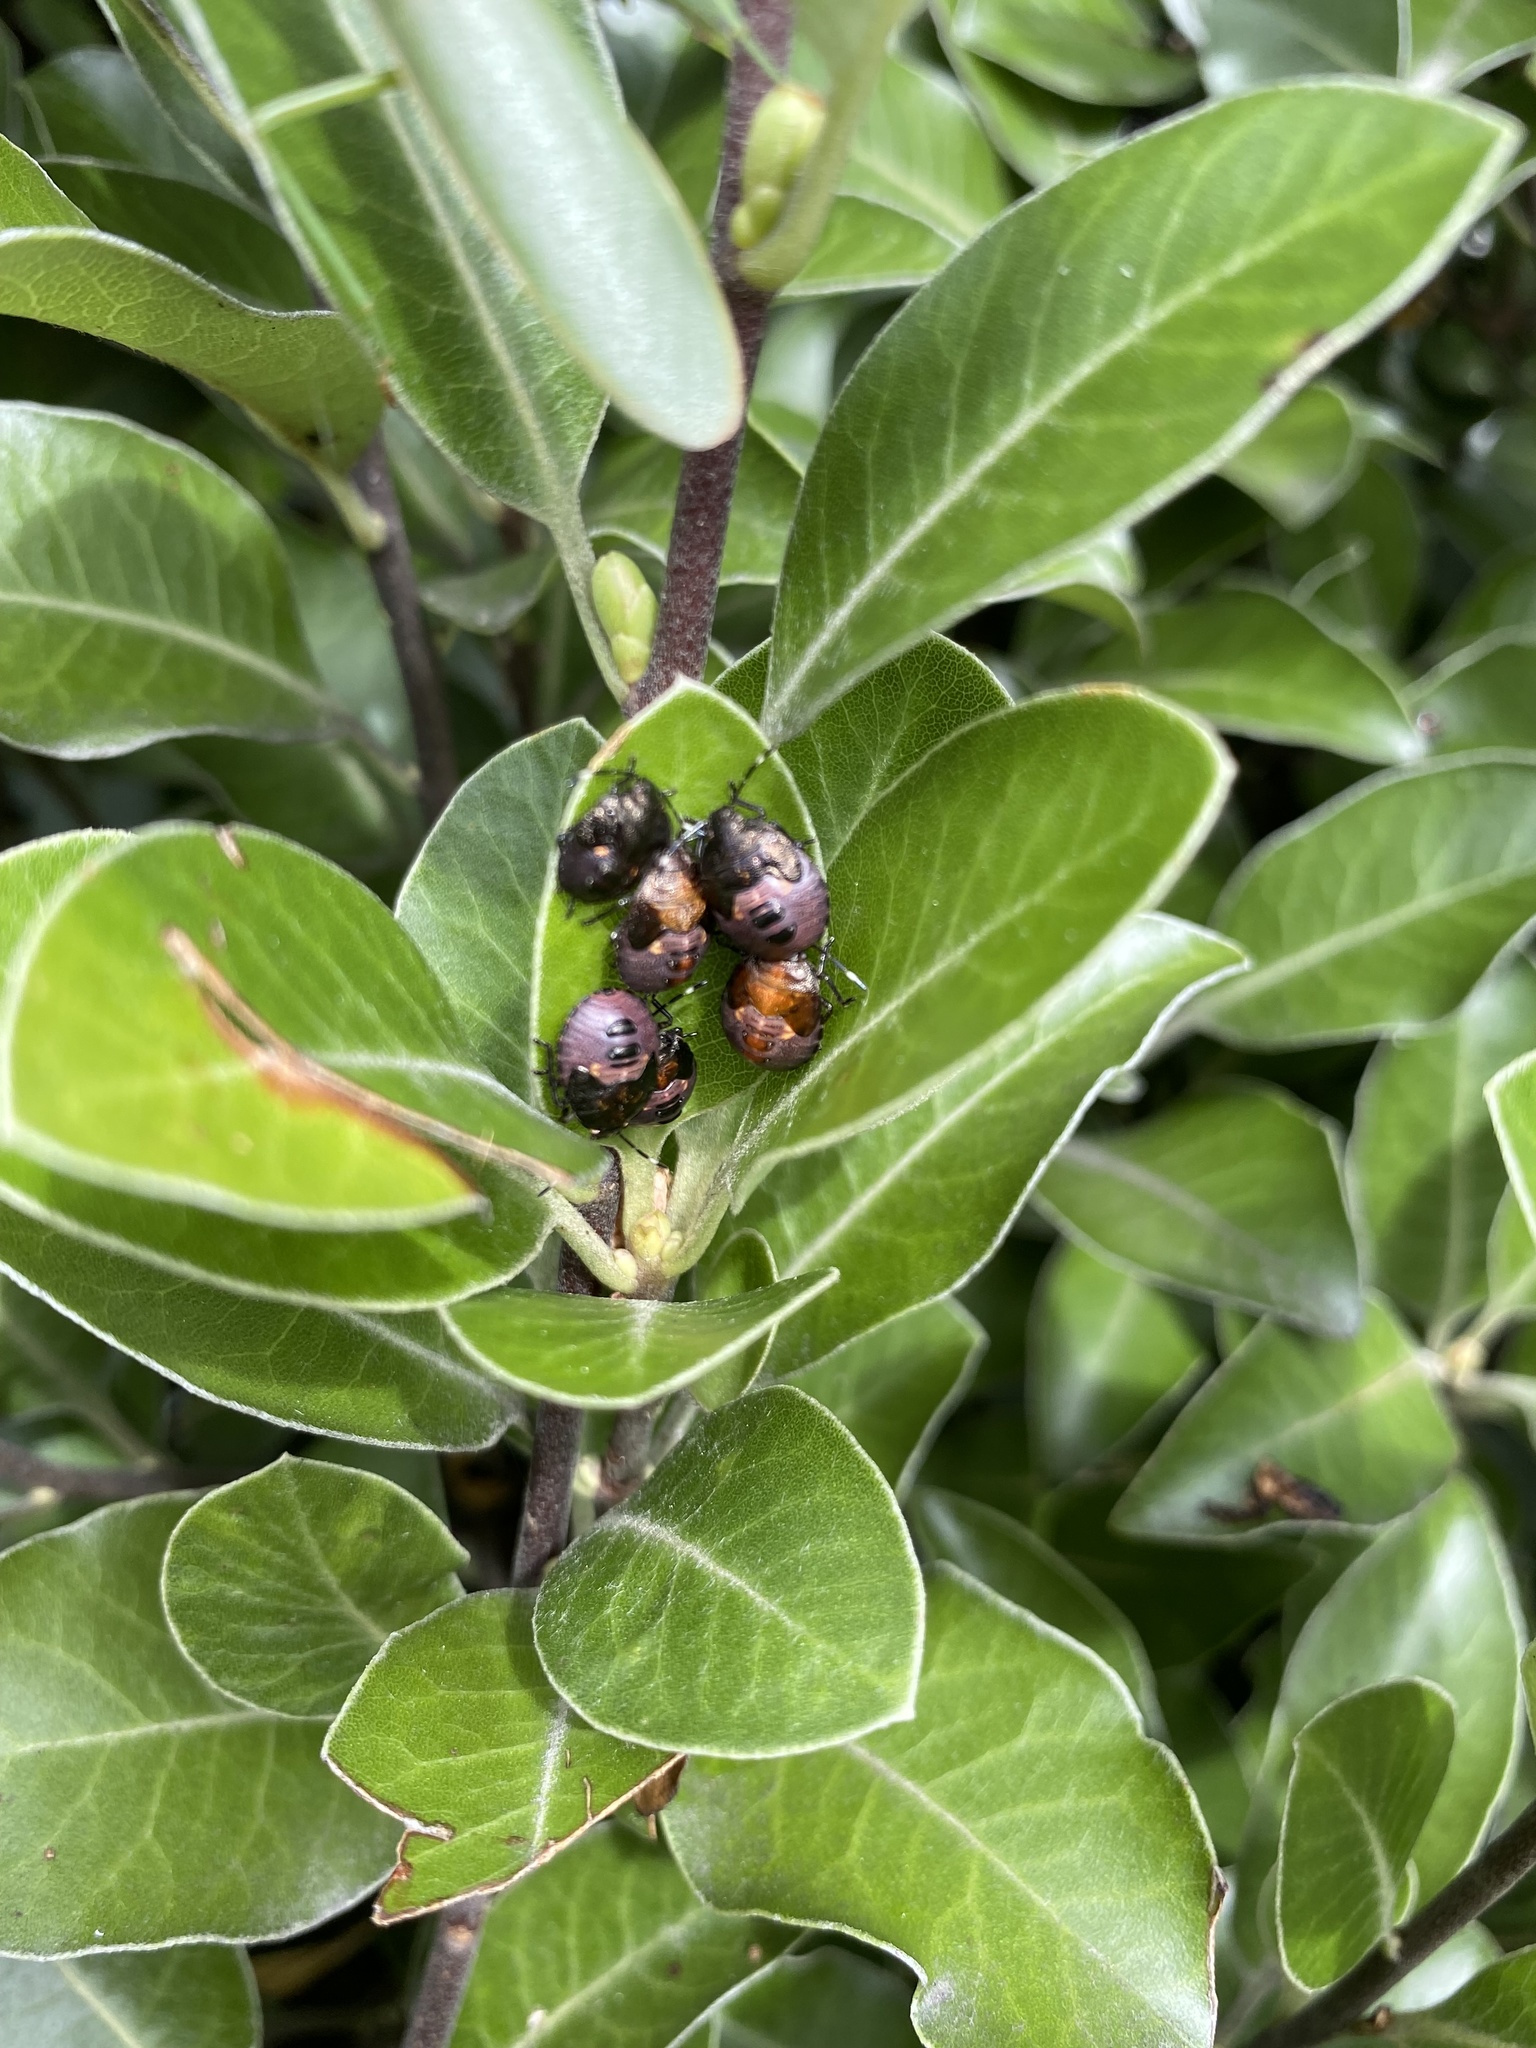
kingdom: Animalia
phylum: Arthropoda
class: Insecta
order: Hemiptera
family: Pentatomidae
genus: Monteithiella
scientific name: Monteithiella
